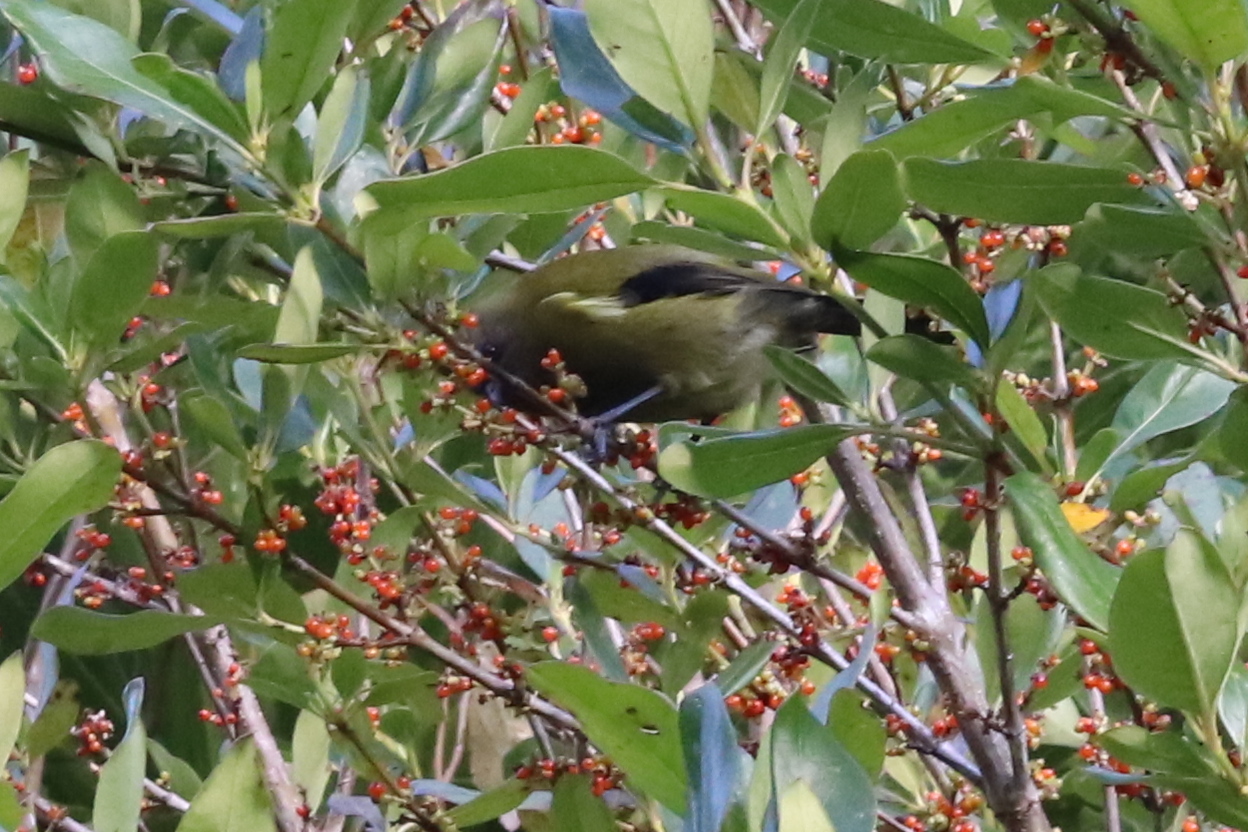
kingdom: Animalia
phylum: Chordata
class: Aves
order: Passeriformes
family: Meliphagidae
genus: Anthornis
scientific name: Anthornis melanura
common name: New zealand bellbird
